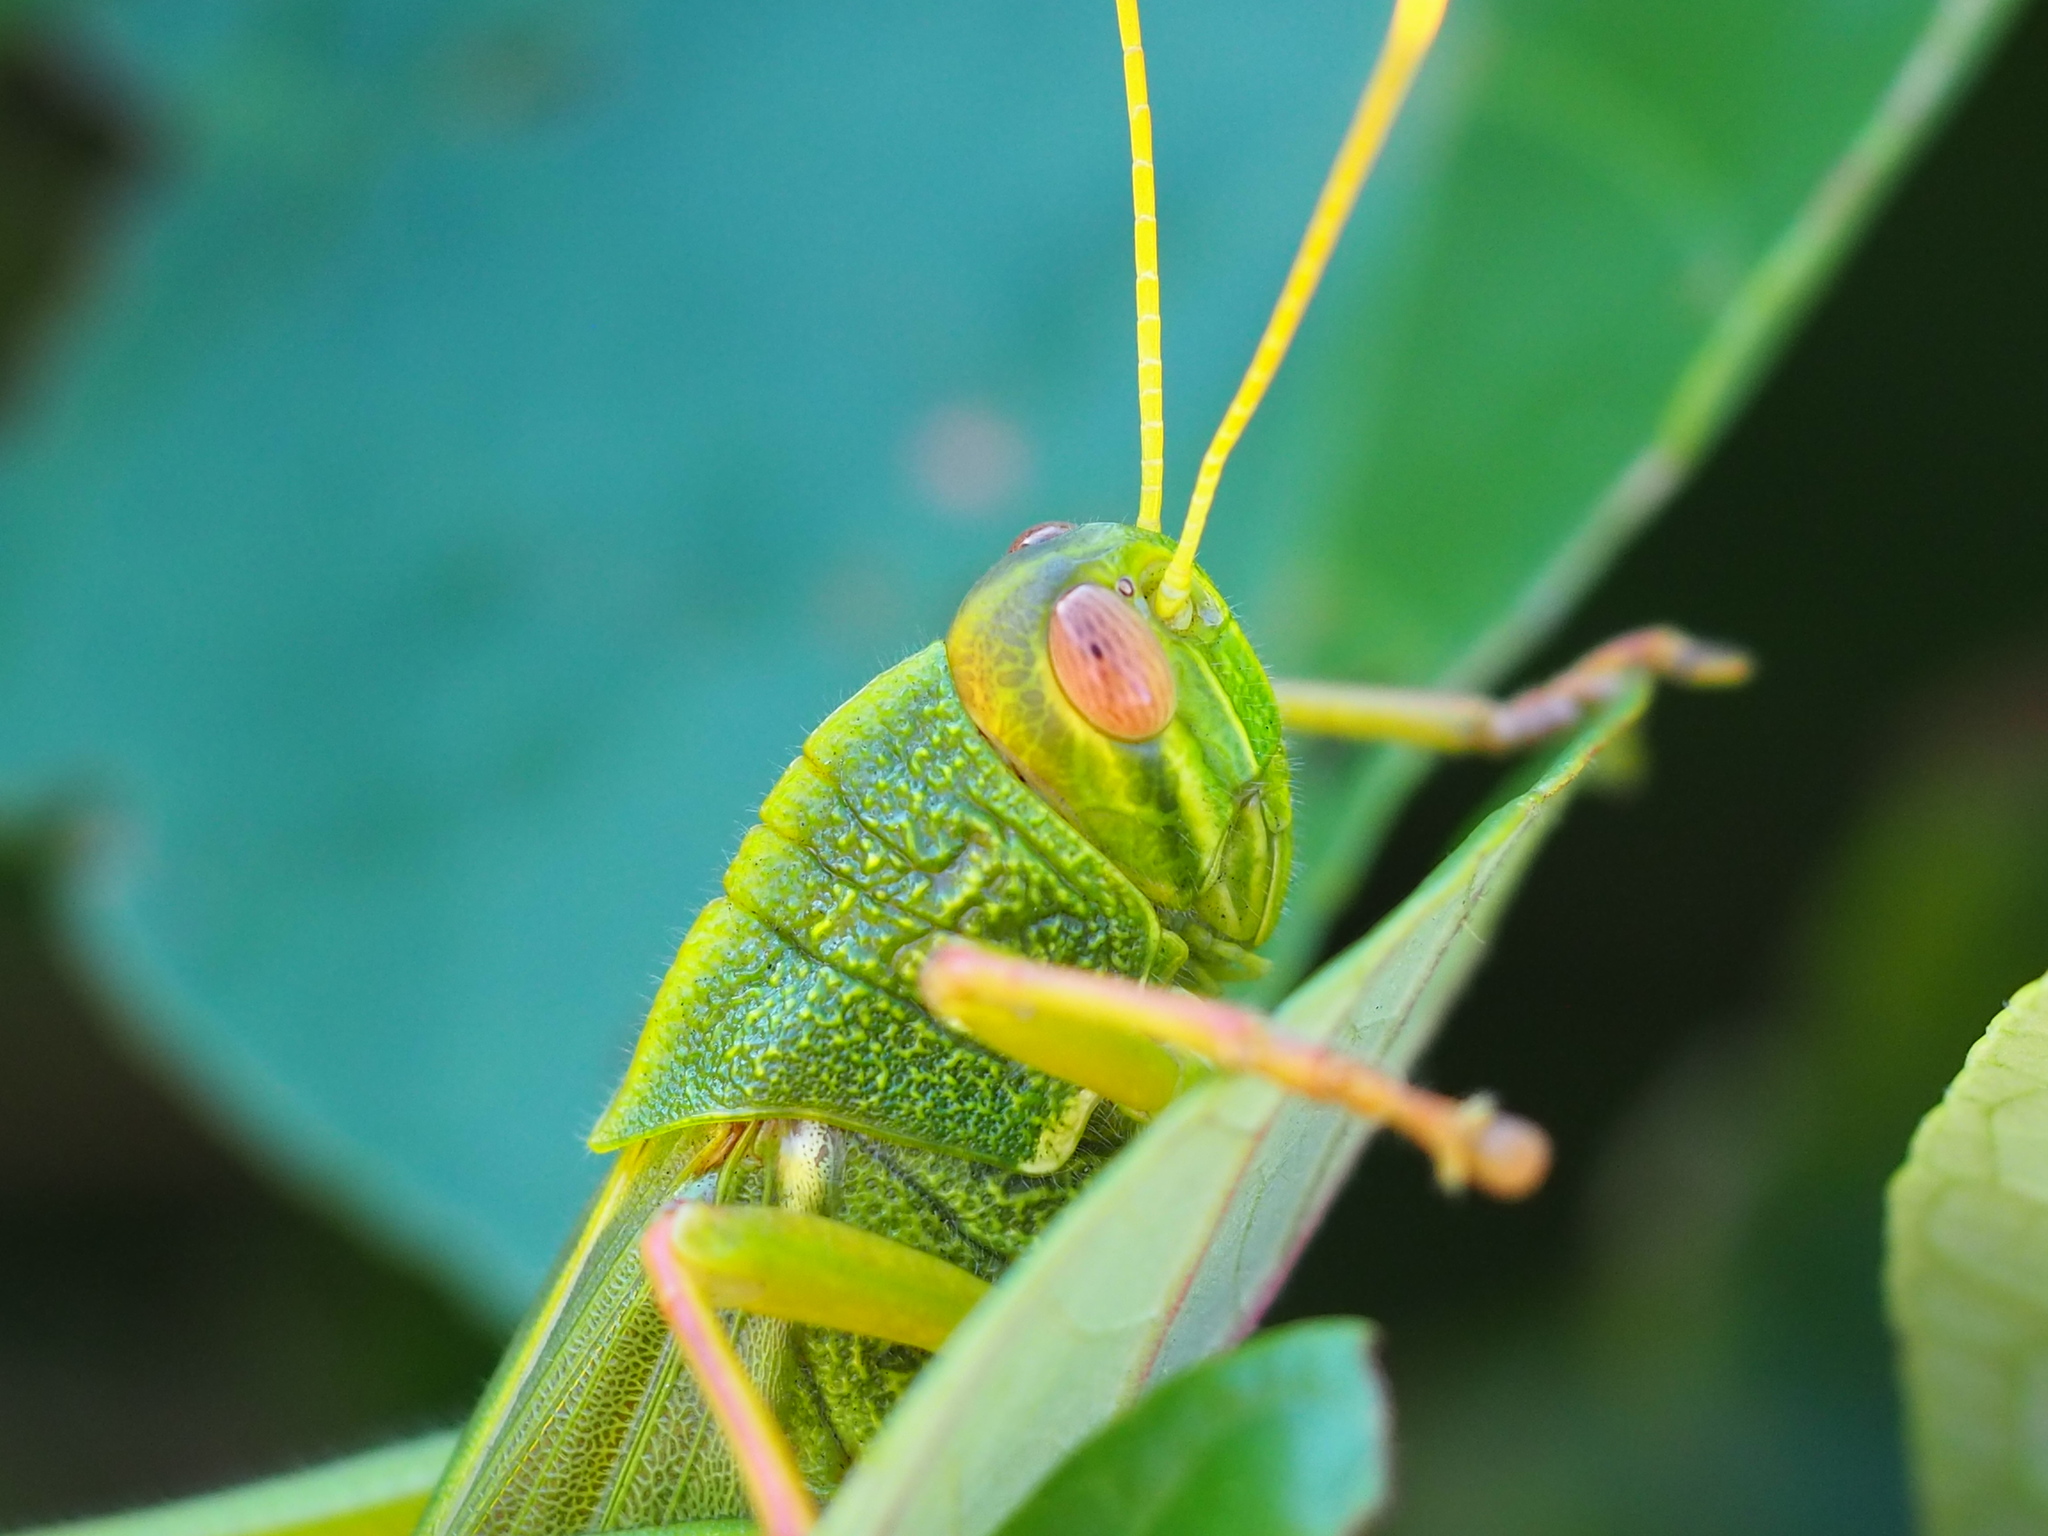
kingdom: Animalia
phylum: Arthropoda
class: Insecta
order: Orthoptera
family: Acrididae
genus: Chondracris
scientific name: Chondracris rosea
